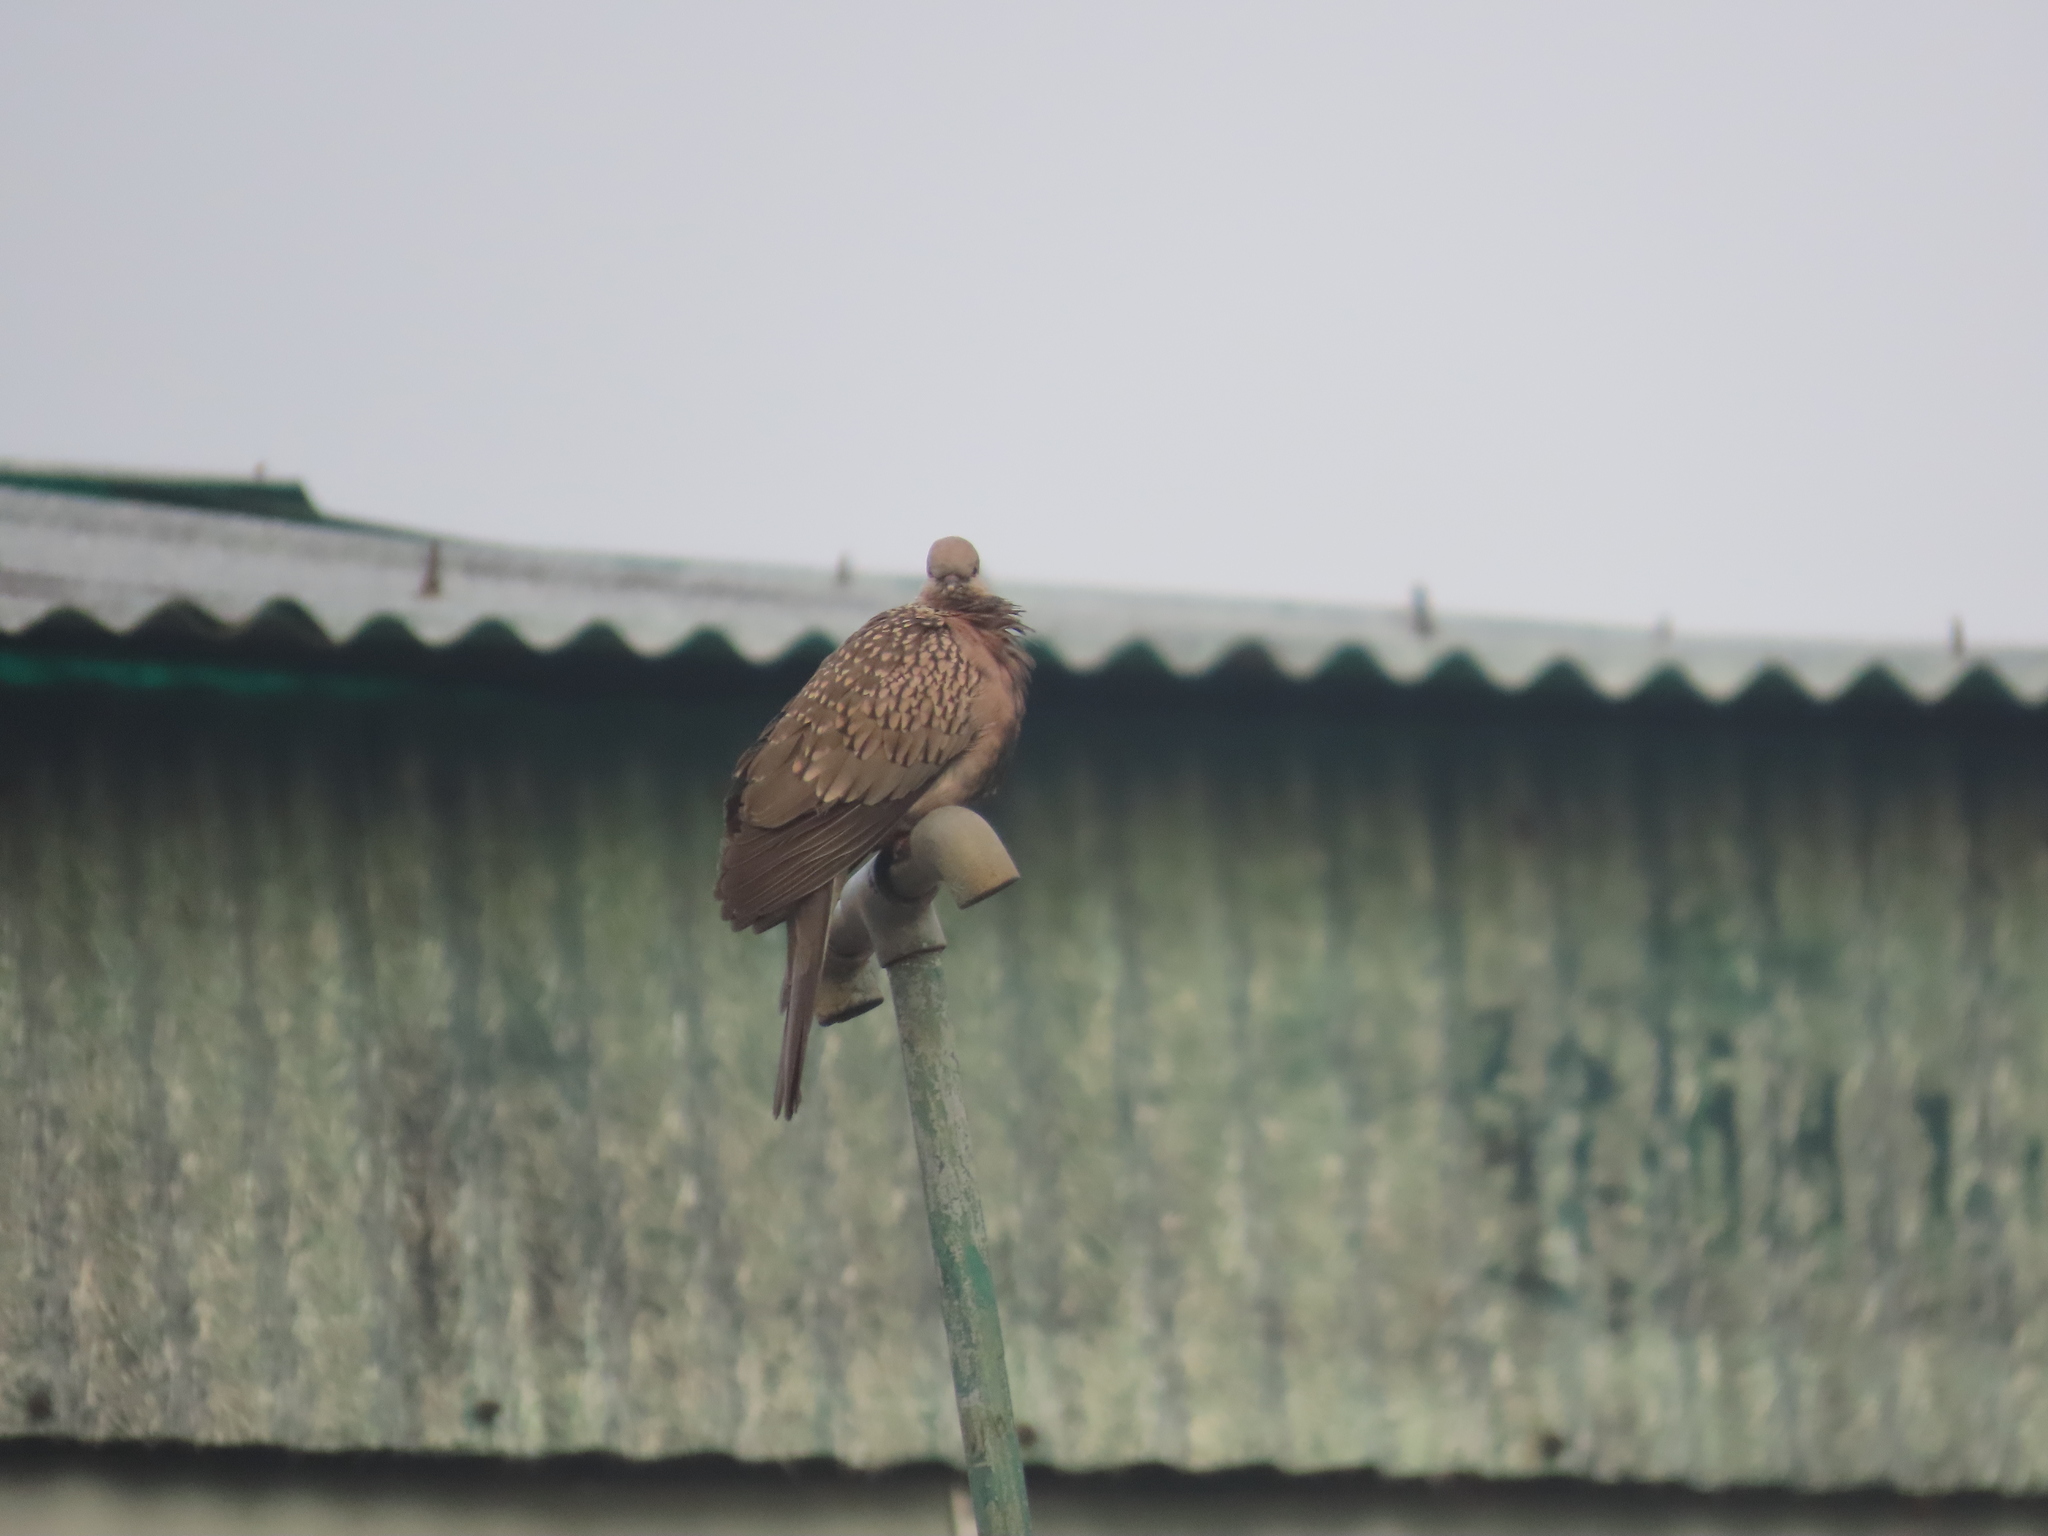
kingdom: Animalia
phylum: Chordata
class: Aves
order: Columbiformes
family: Columbidae
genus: Spilopelia
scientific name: Spilopelia chinensis
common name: Spotted dove
